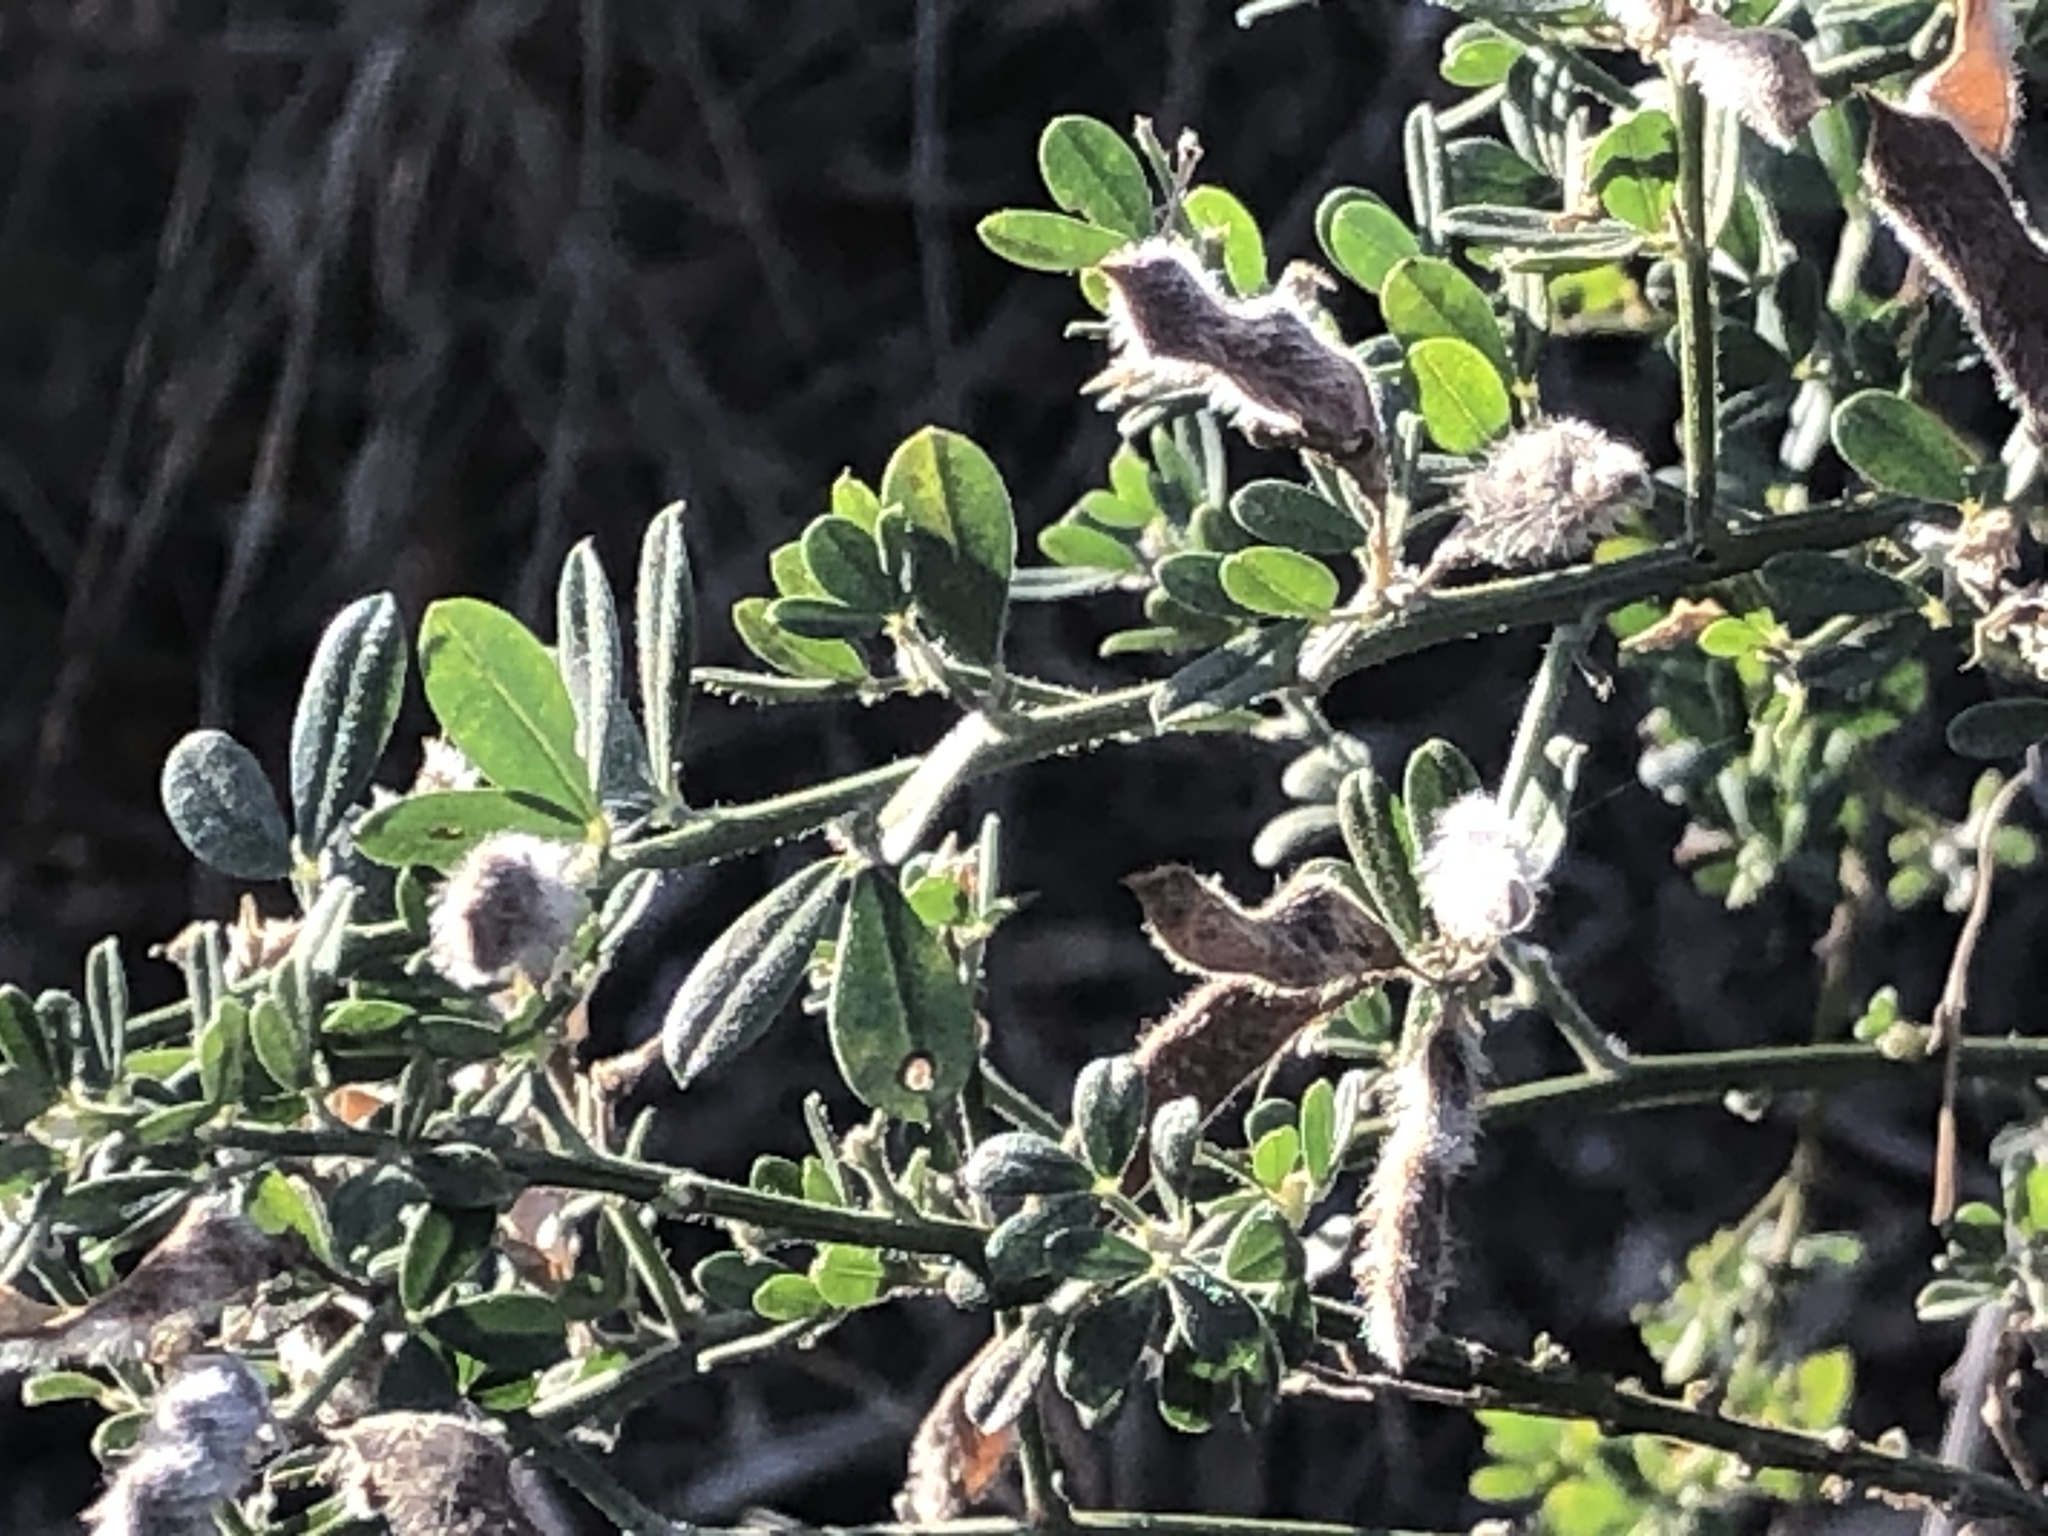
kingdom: Plantae
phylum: Tracheophyta
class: Magnoliopsida
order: Fabales
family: Fabaceae
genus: Genista
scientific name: Genista monspessulana
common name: Montpellier broom
